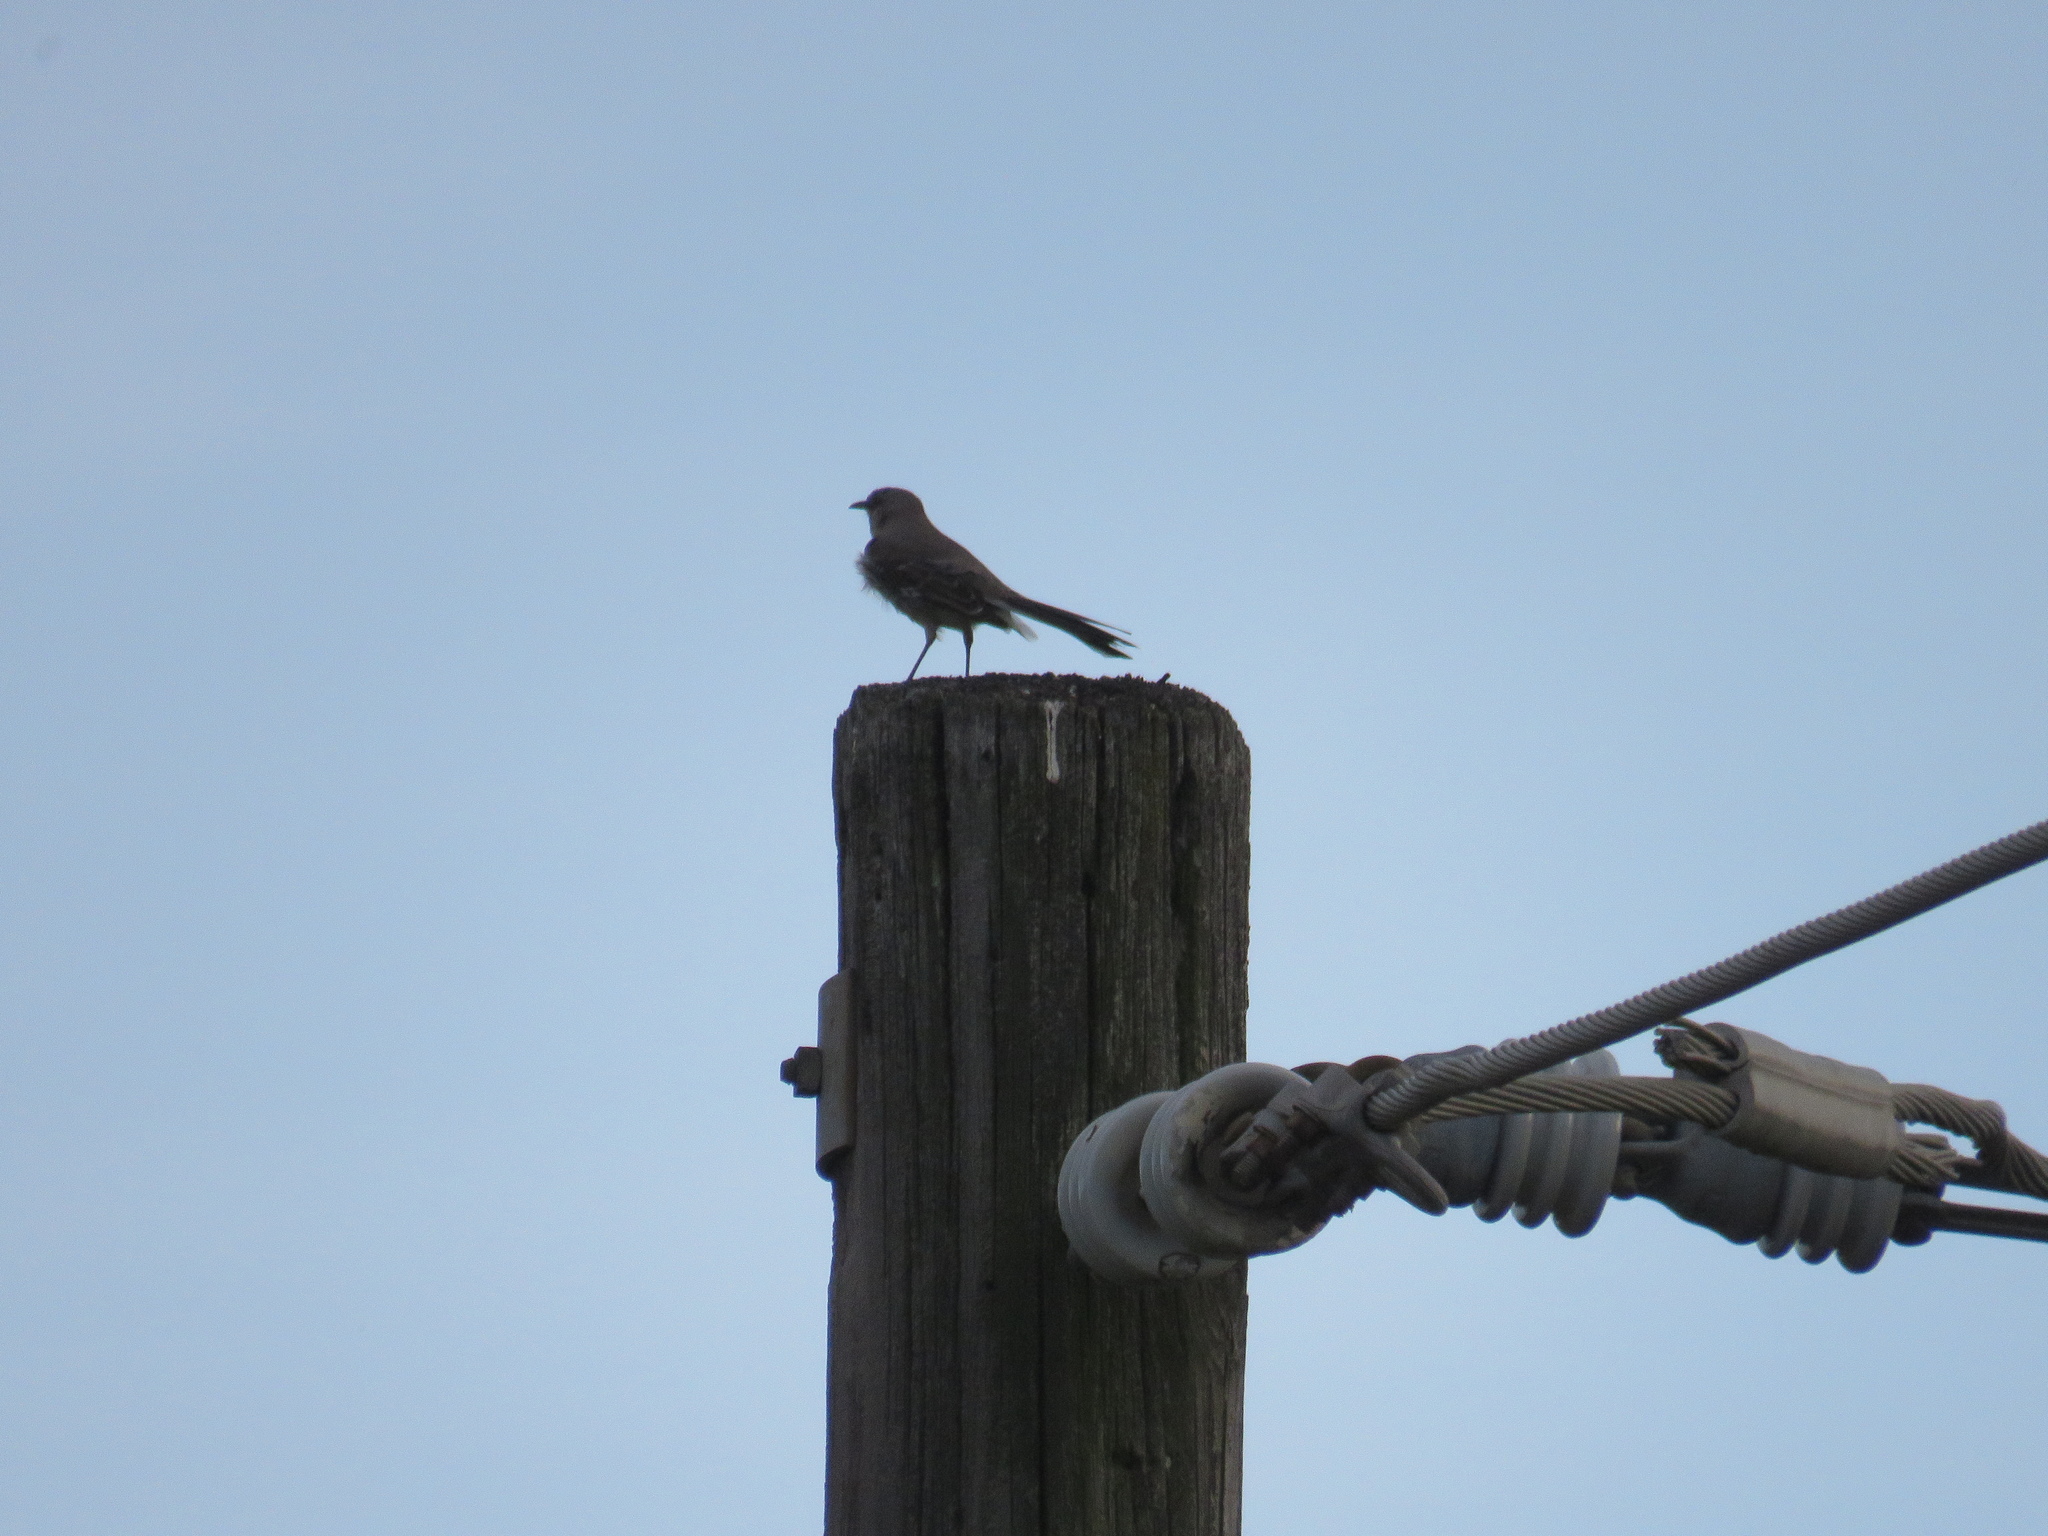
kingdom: Animalia
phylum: Chordata
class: Aves
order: Passeriformes
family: Mimidae
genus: Mimus
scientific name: Mimus polyglottos
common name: Northern mockingbird
